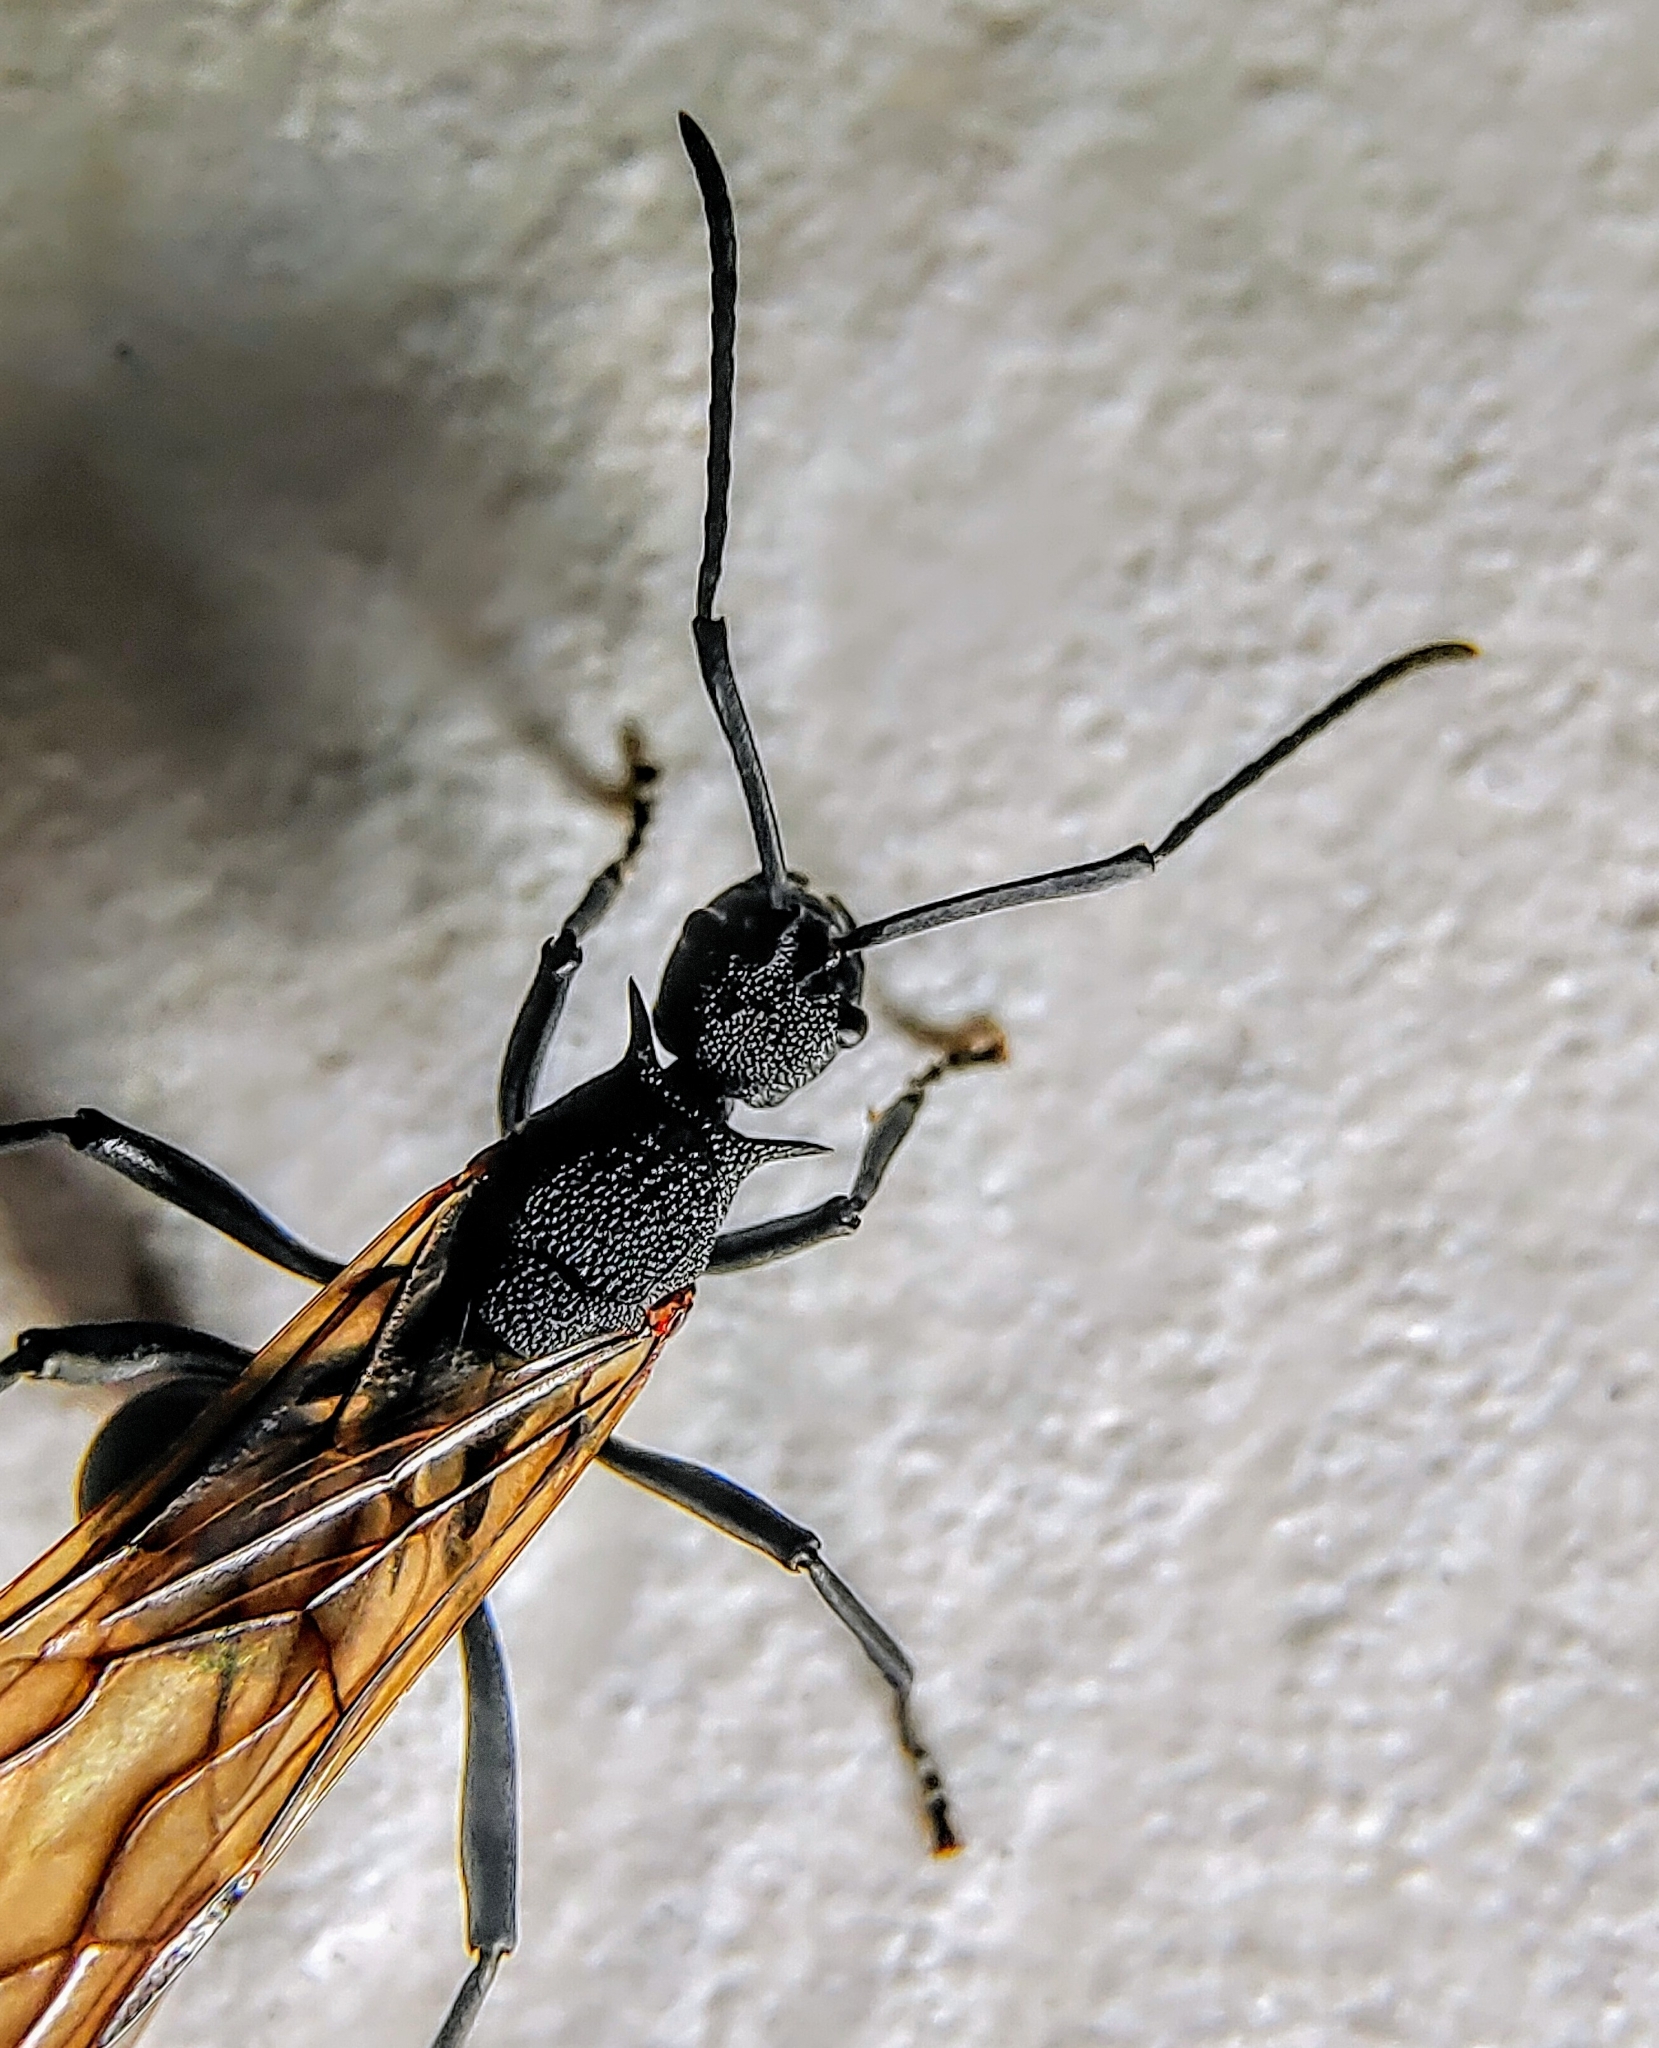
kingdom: Animalia
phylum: Arthropoda
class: Insecta
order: Hymenoptera
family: Formicidae
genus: Polyrhachis
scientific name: Polyrhachis armata
